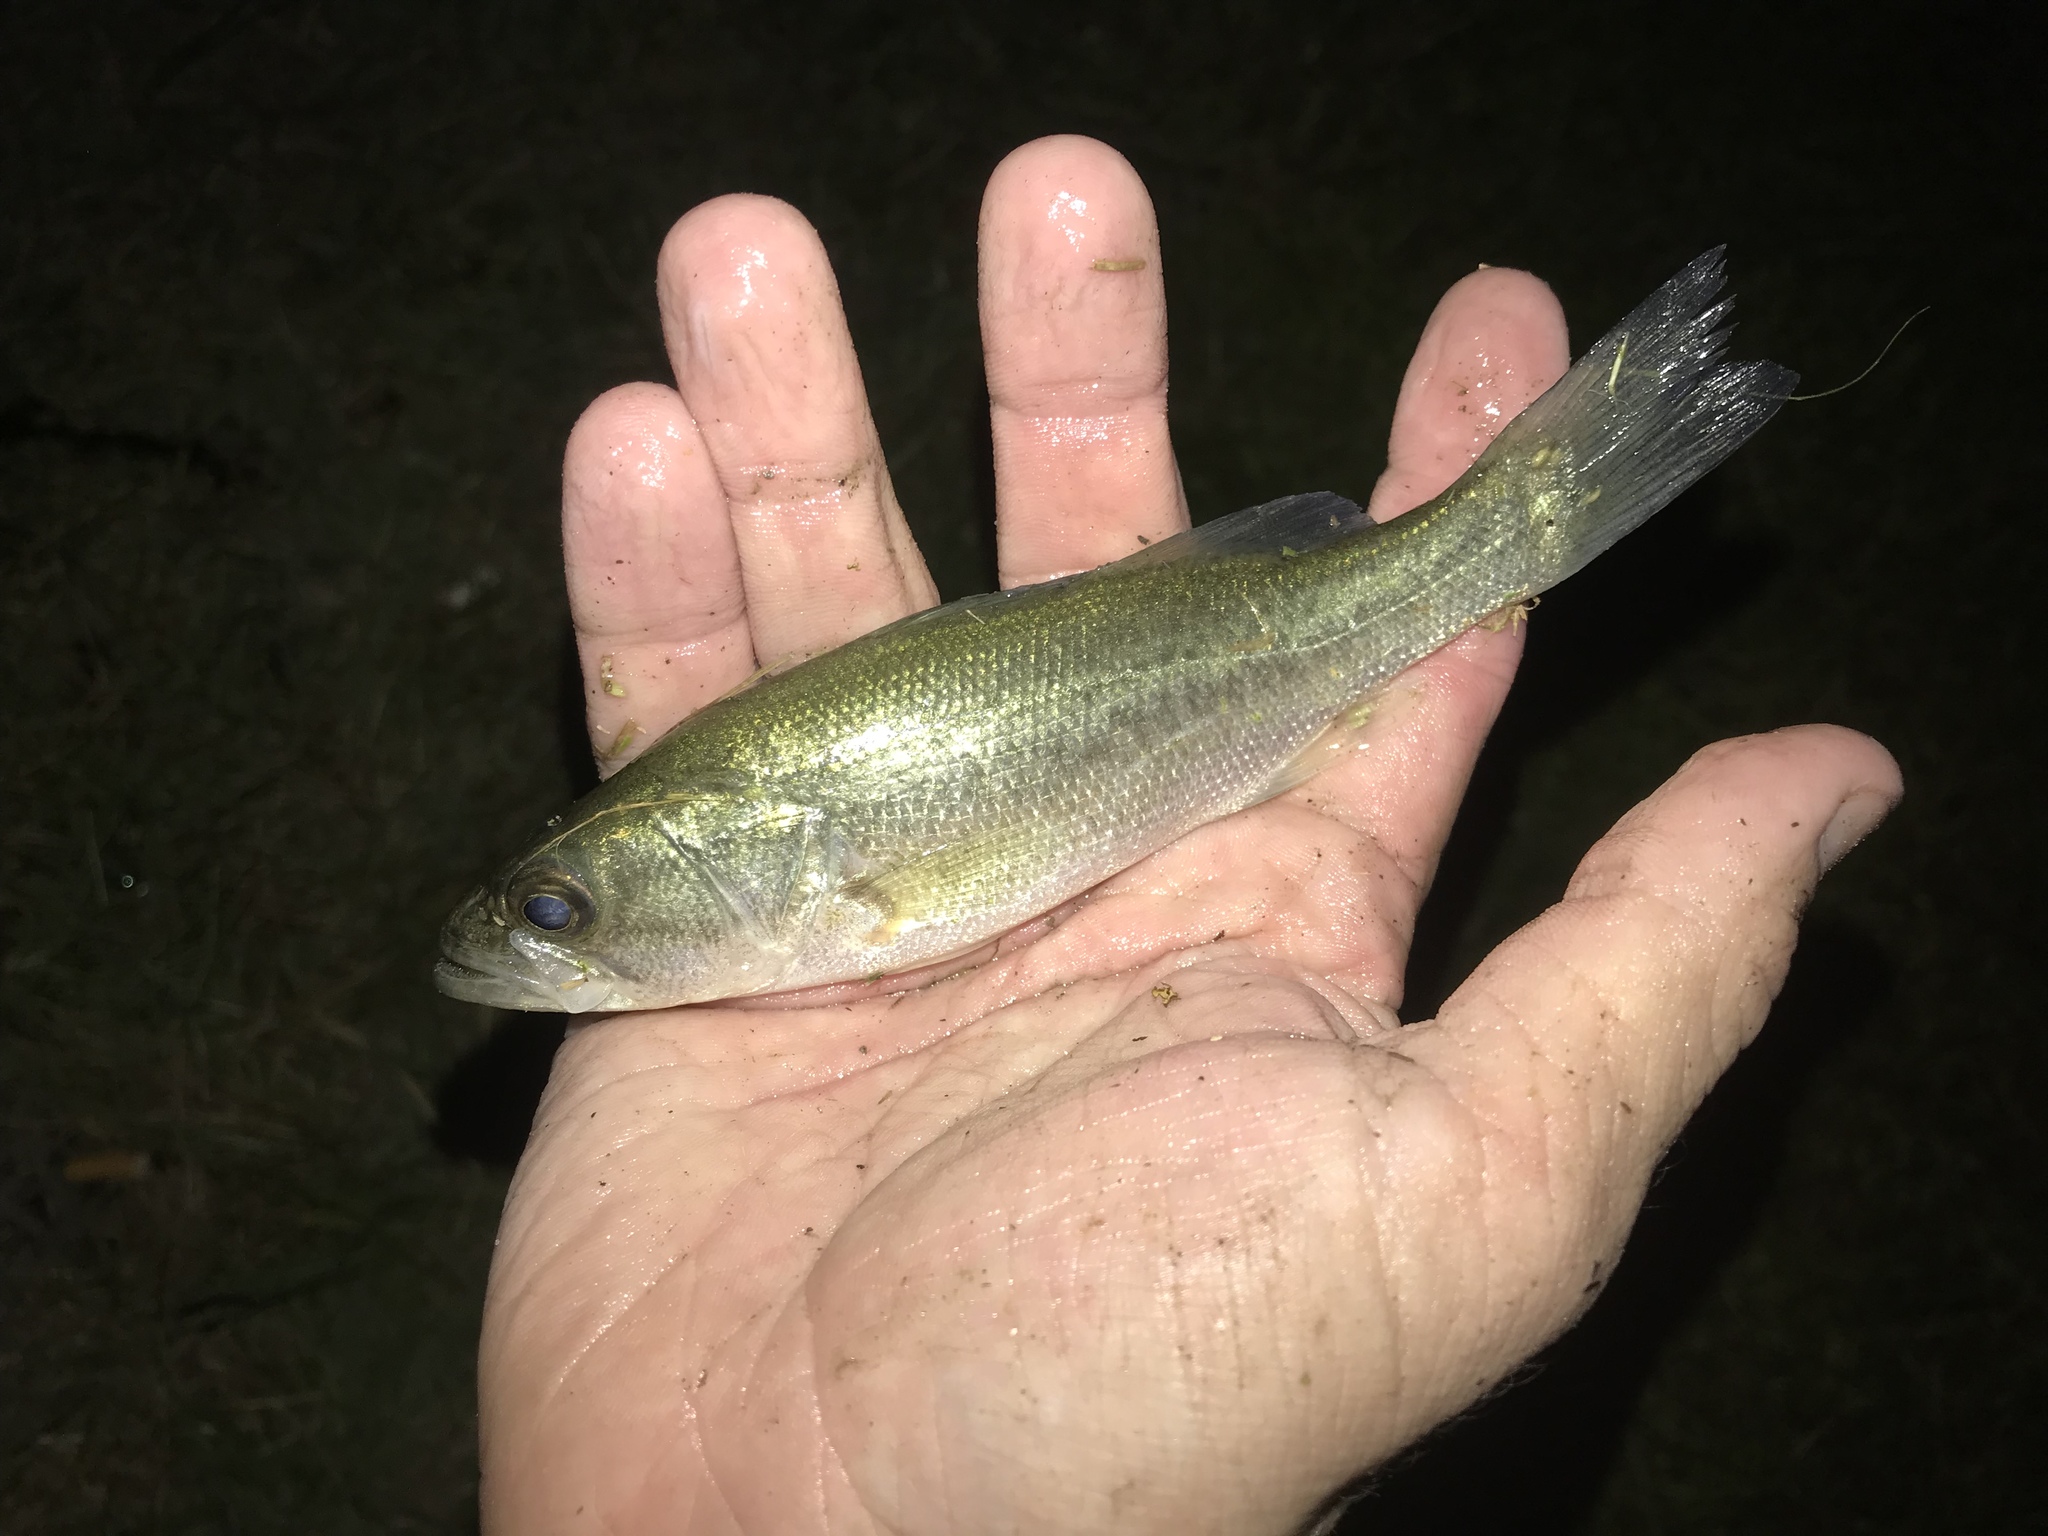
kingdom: Animalia
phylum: Chordata
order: Perciformes
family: Centrarchidae
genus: Micropterus
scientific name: Micropterus
